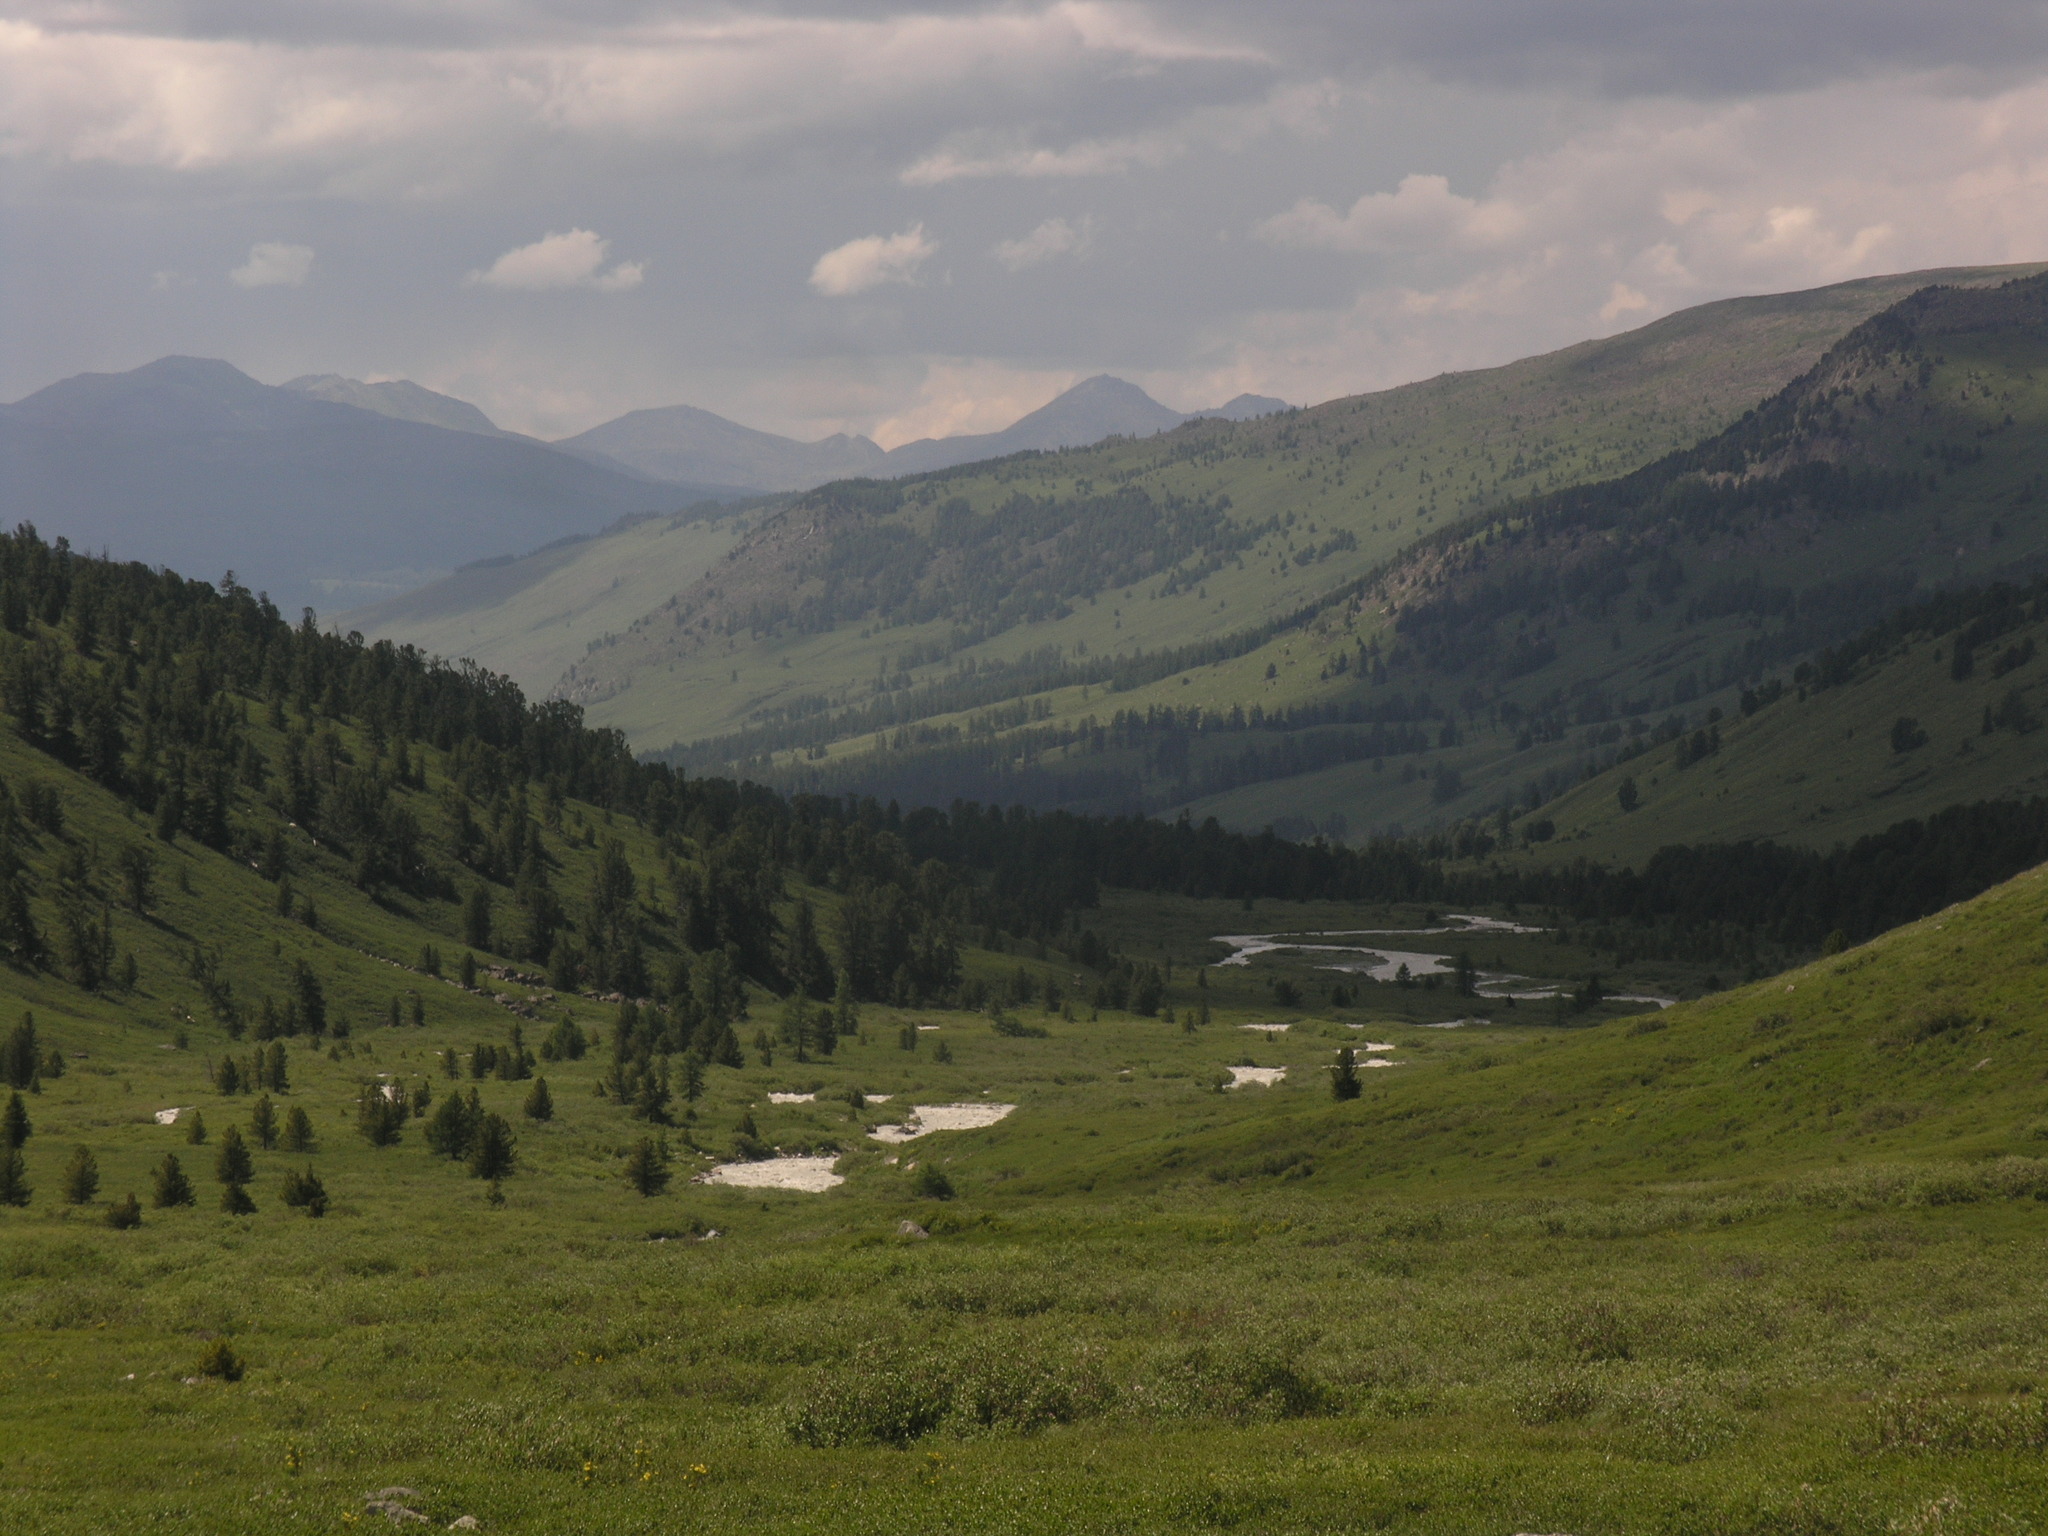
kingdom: Plantae
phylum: Tracheophyta
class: Pinopsida
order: Pinales
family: Pinaceae
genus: Pinus
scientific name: Pinus sibirica
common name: Siberian pine
